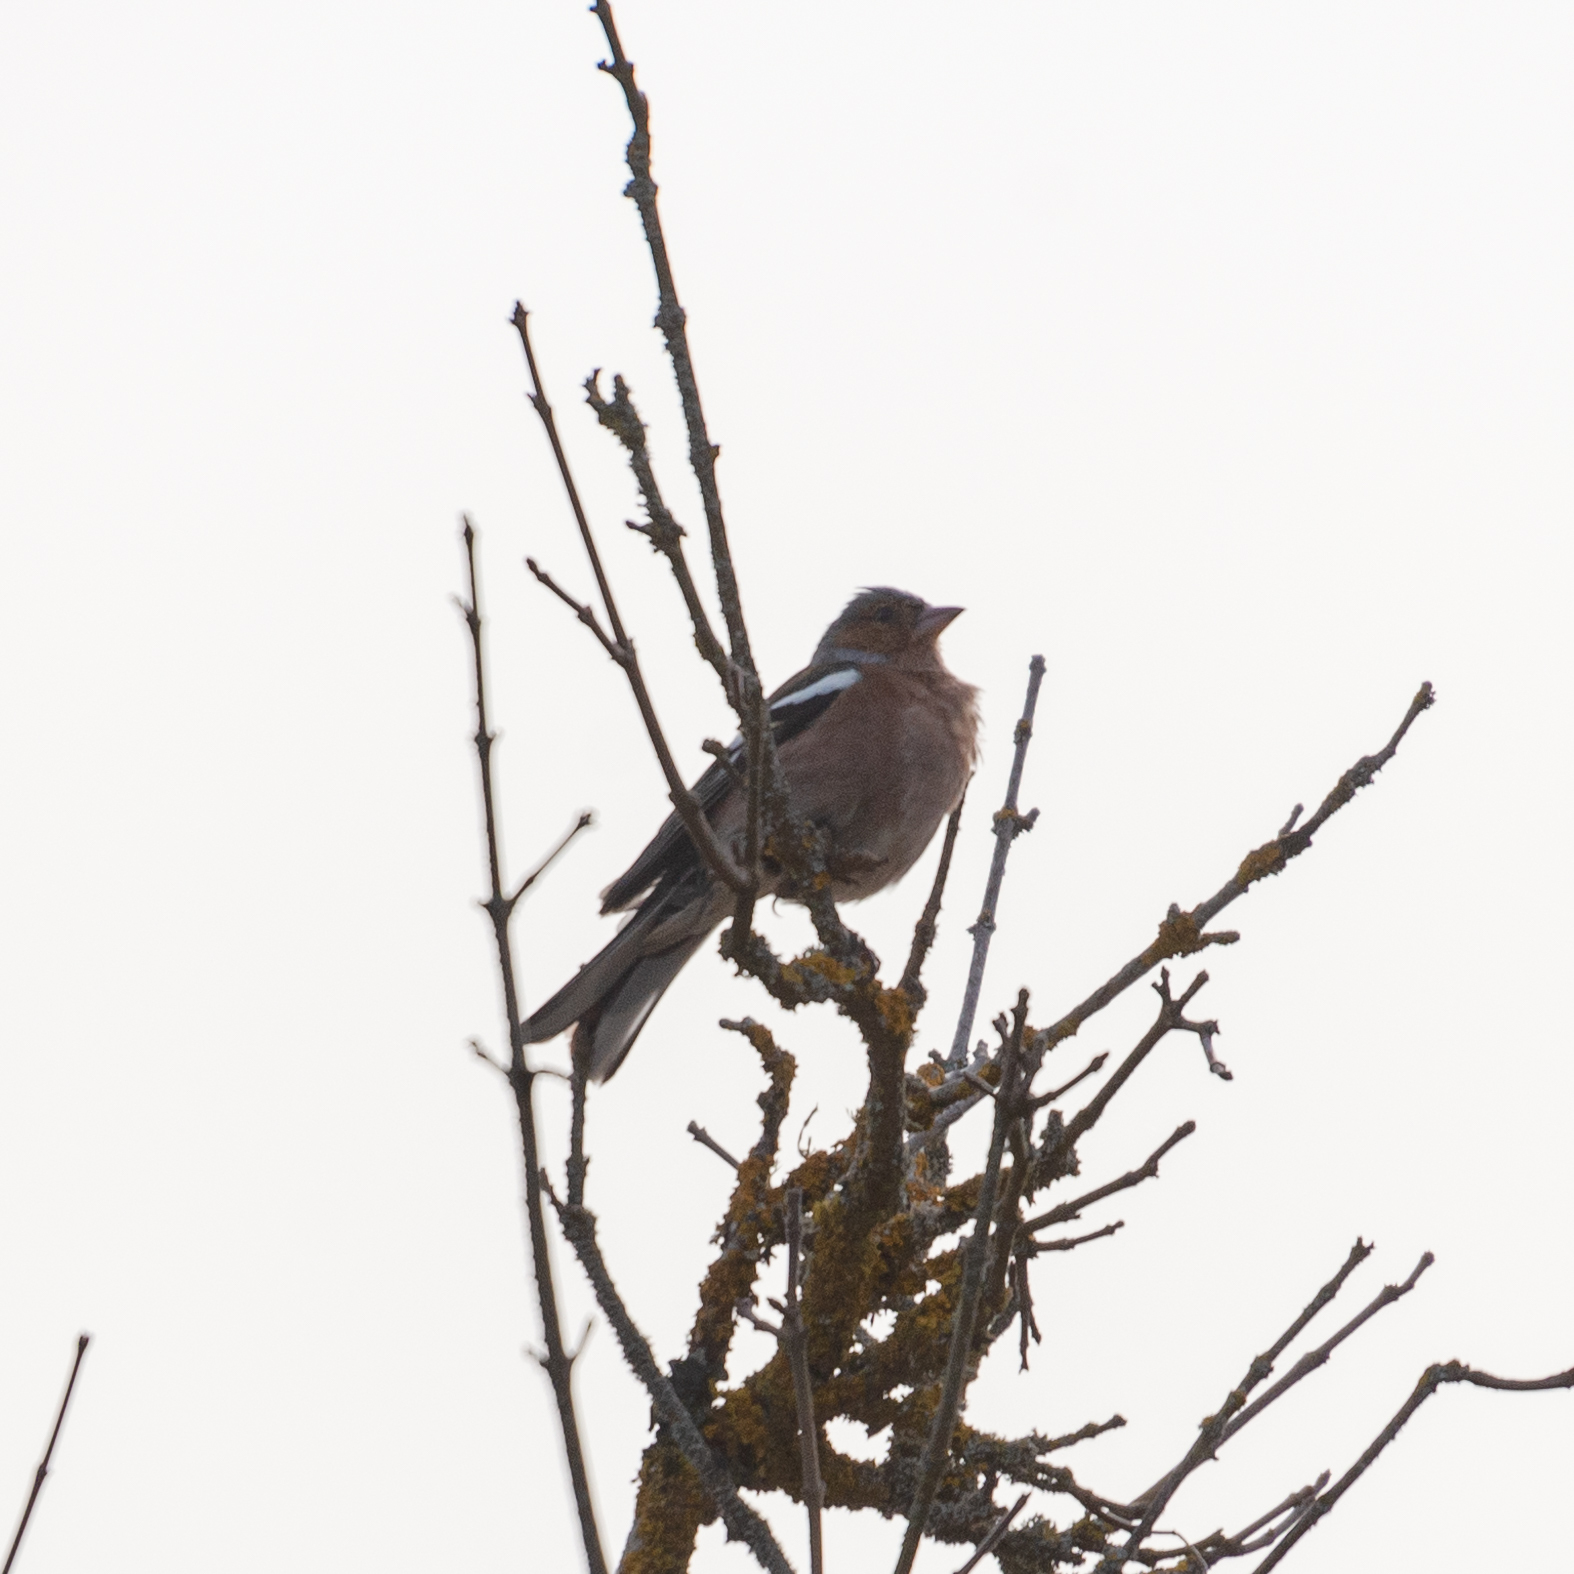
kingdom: Animalia
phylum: Chordata
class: Aves
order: Passeriformes
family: Fringillidae
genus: Fringilla
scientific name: Fringilla coelebs
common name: Common chaffinch
